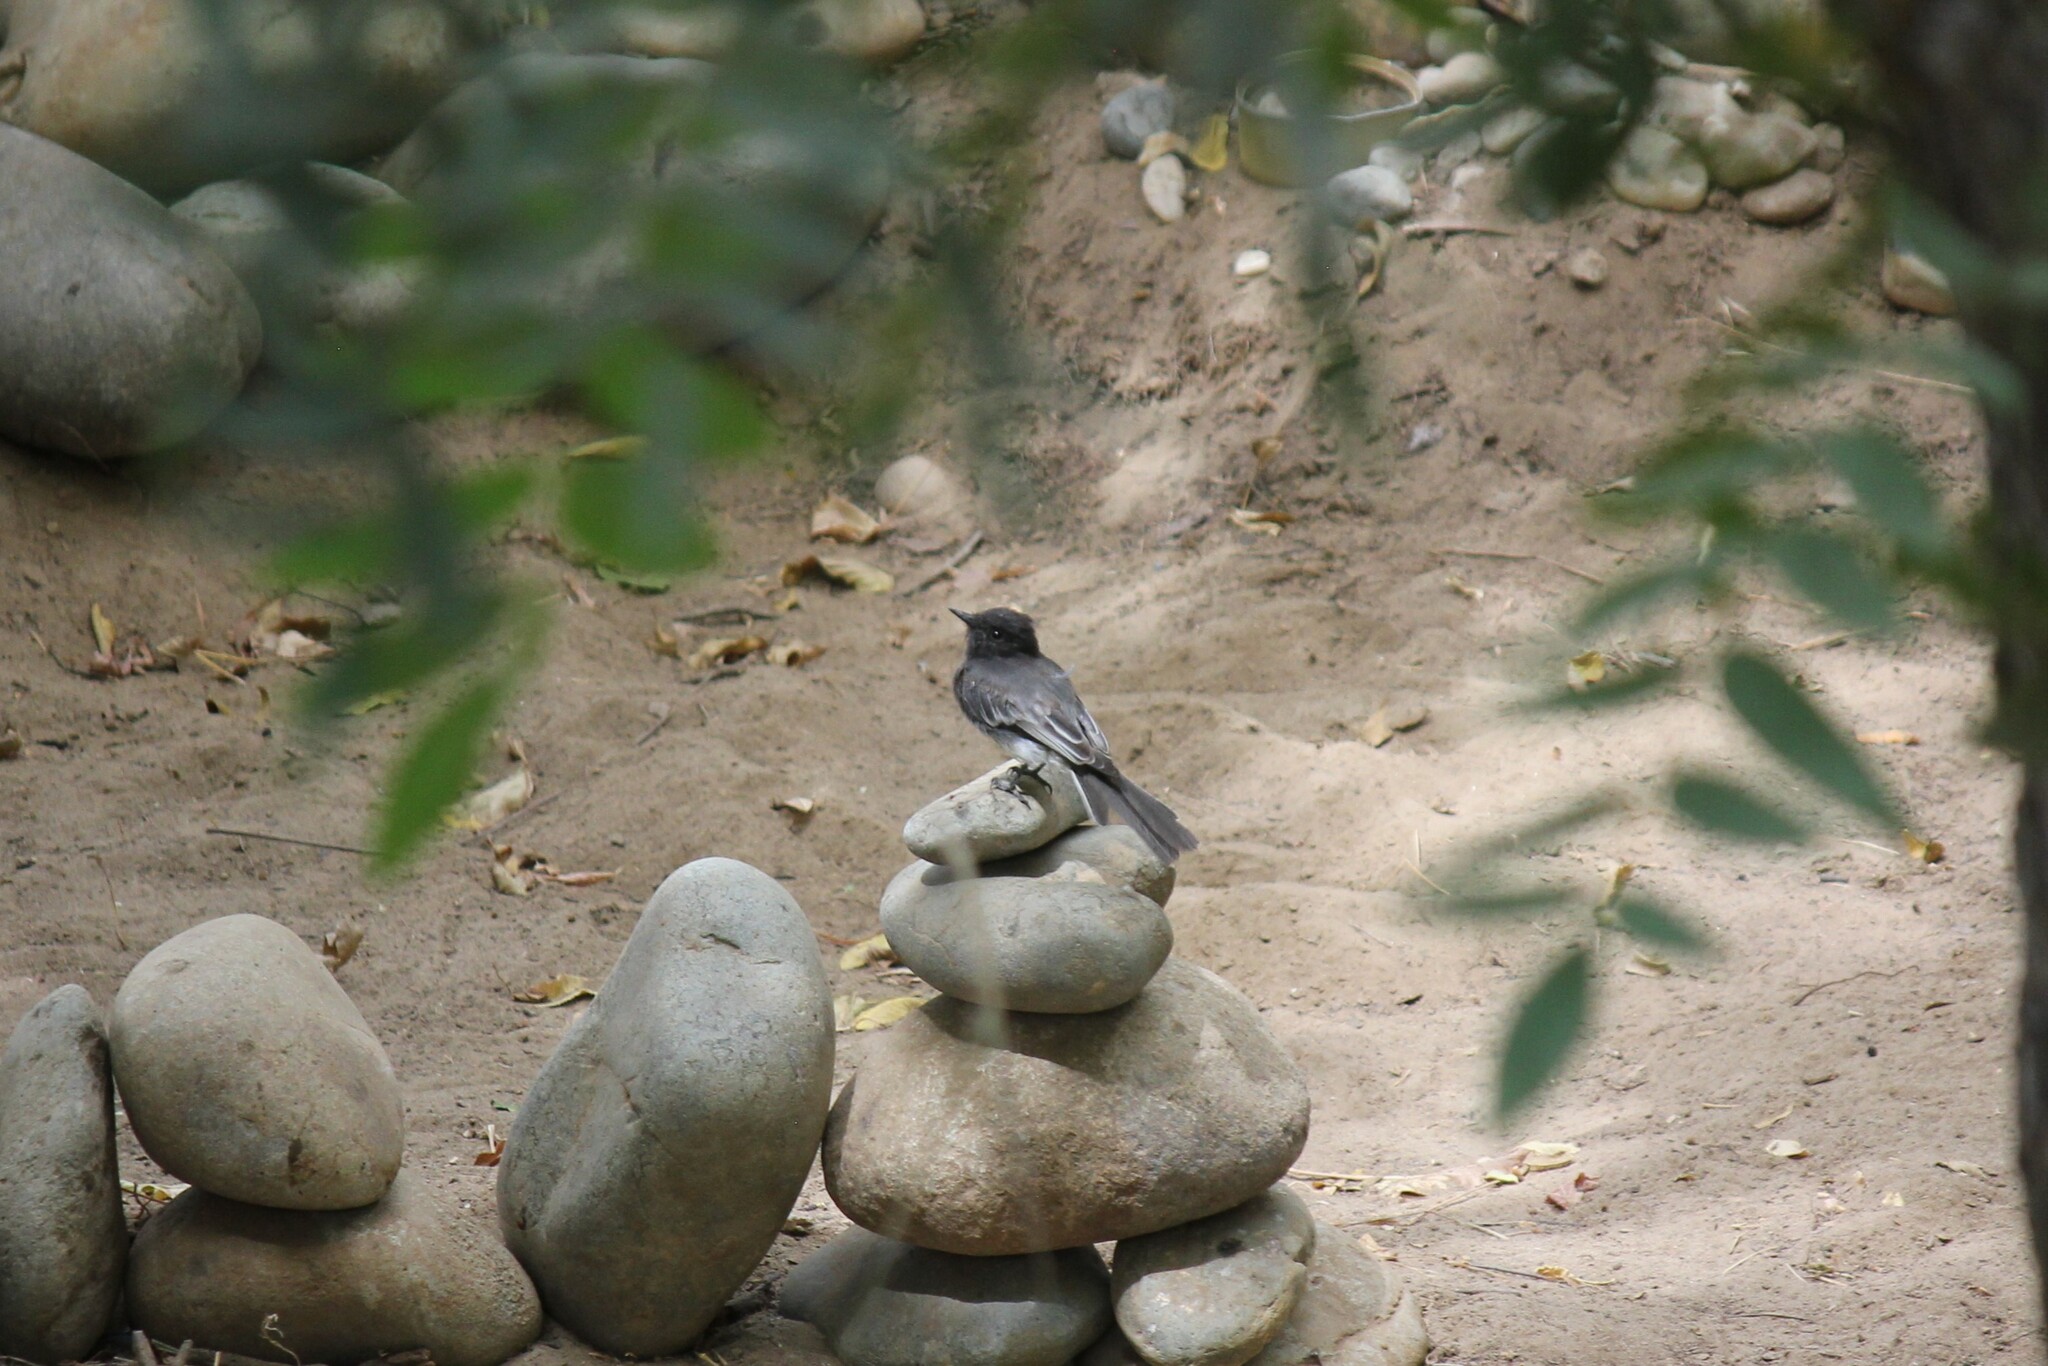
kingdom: Animalia
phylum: Chordata
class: Aves
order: Passeriformes
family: Tyrannidae
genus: Sayornis
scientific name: Sayornis nigricans
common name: Black phoebe
